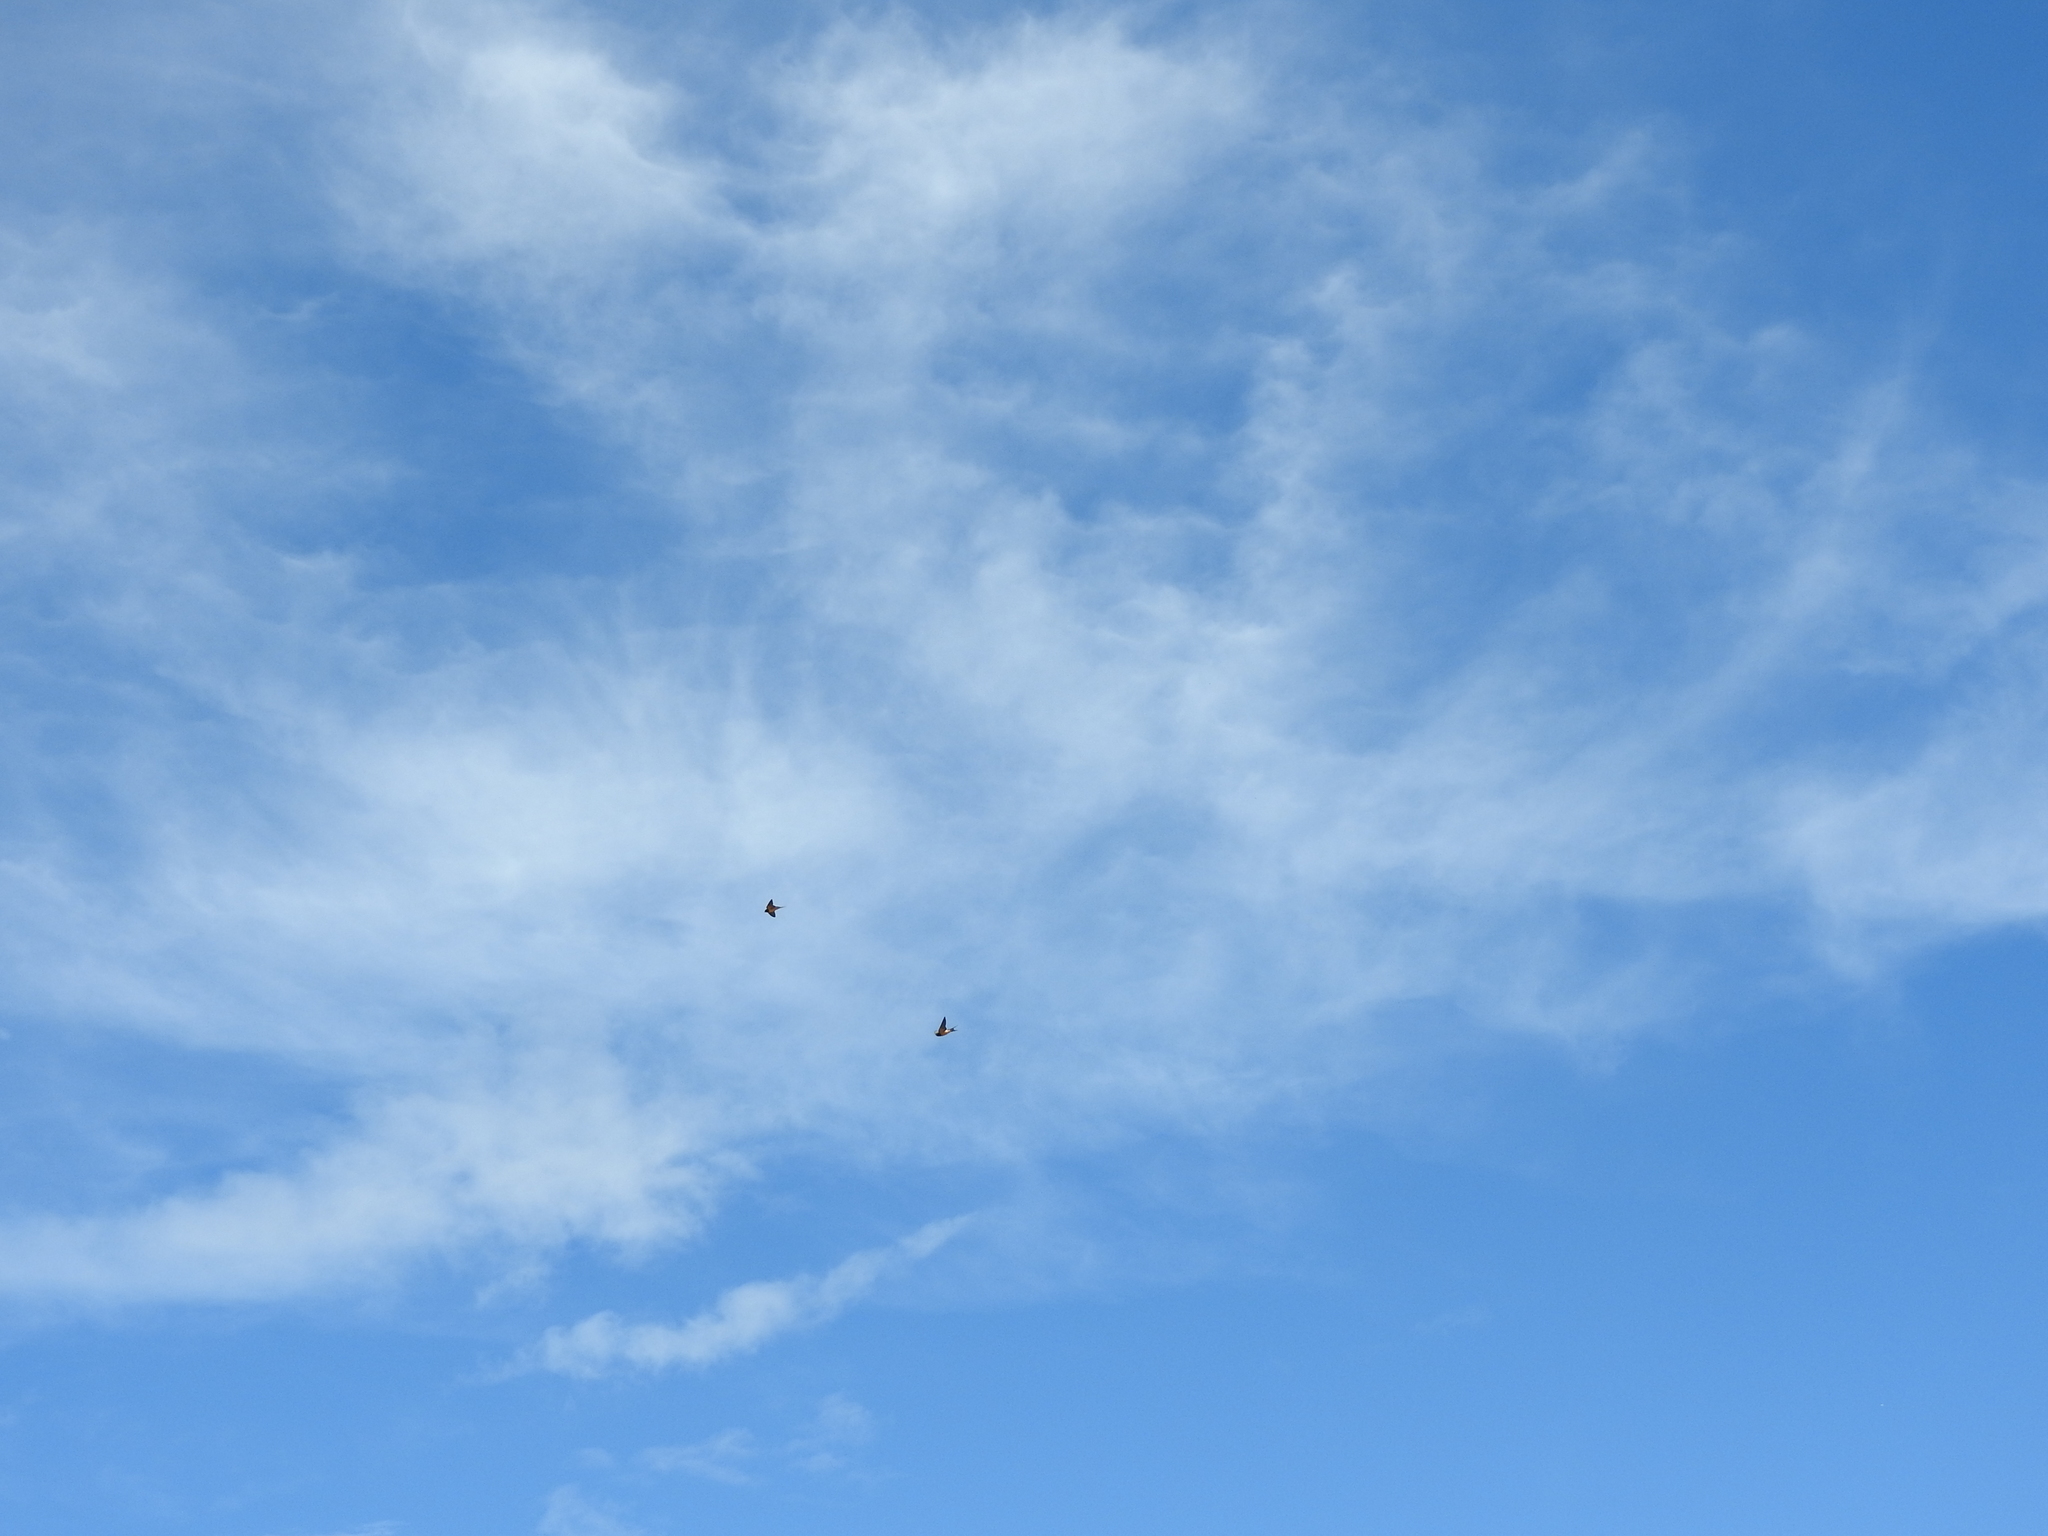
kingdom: Animalia
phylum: Chordata
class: Aves
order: Passeriformes
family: Hirundinidae
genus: Hirundo
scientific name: Hirundo rustica
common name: Barn swallow
